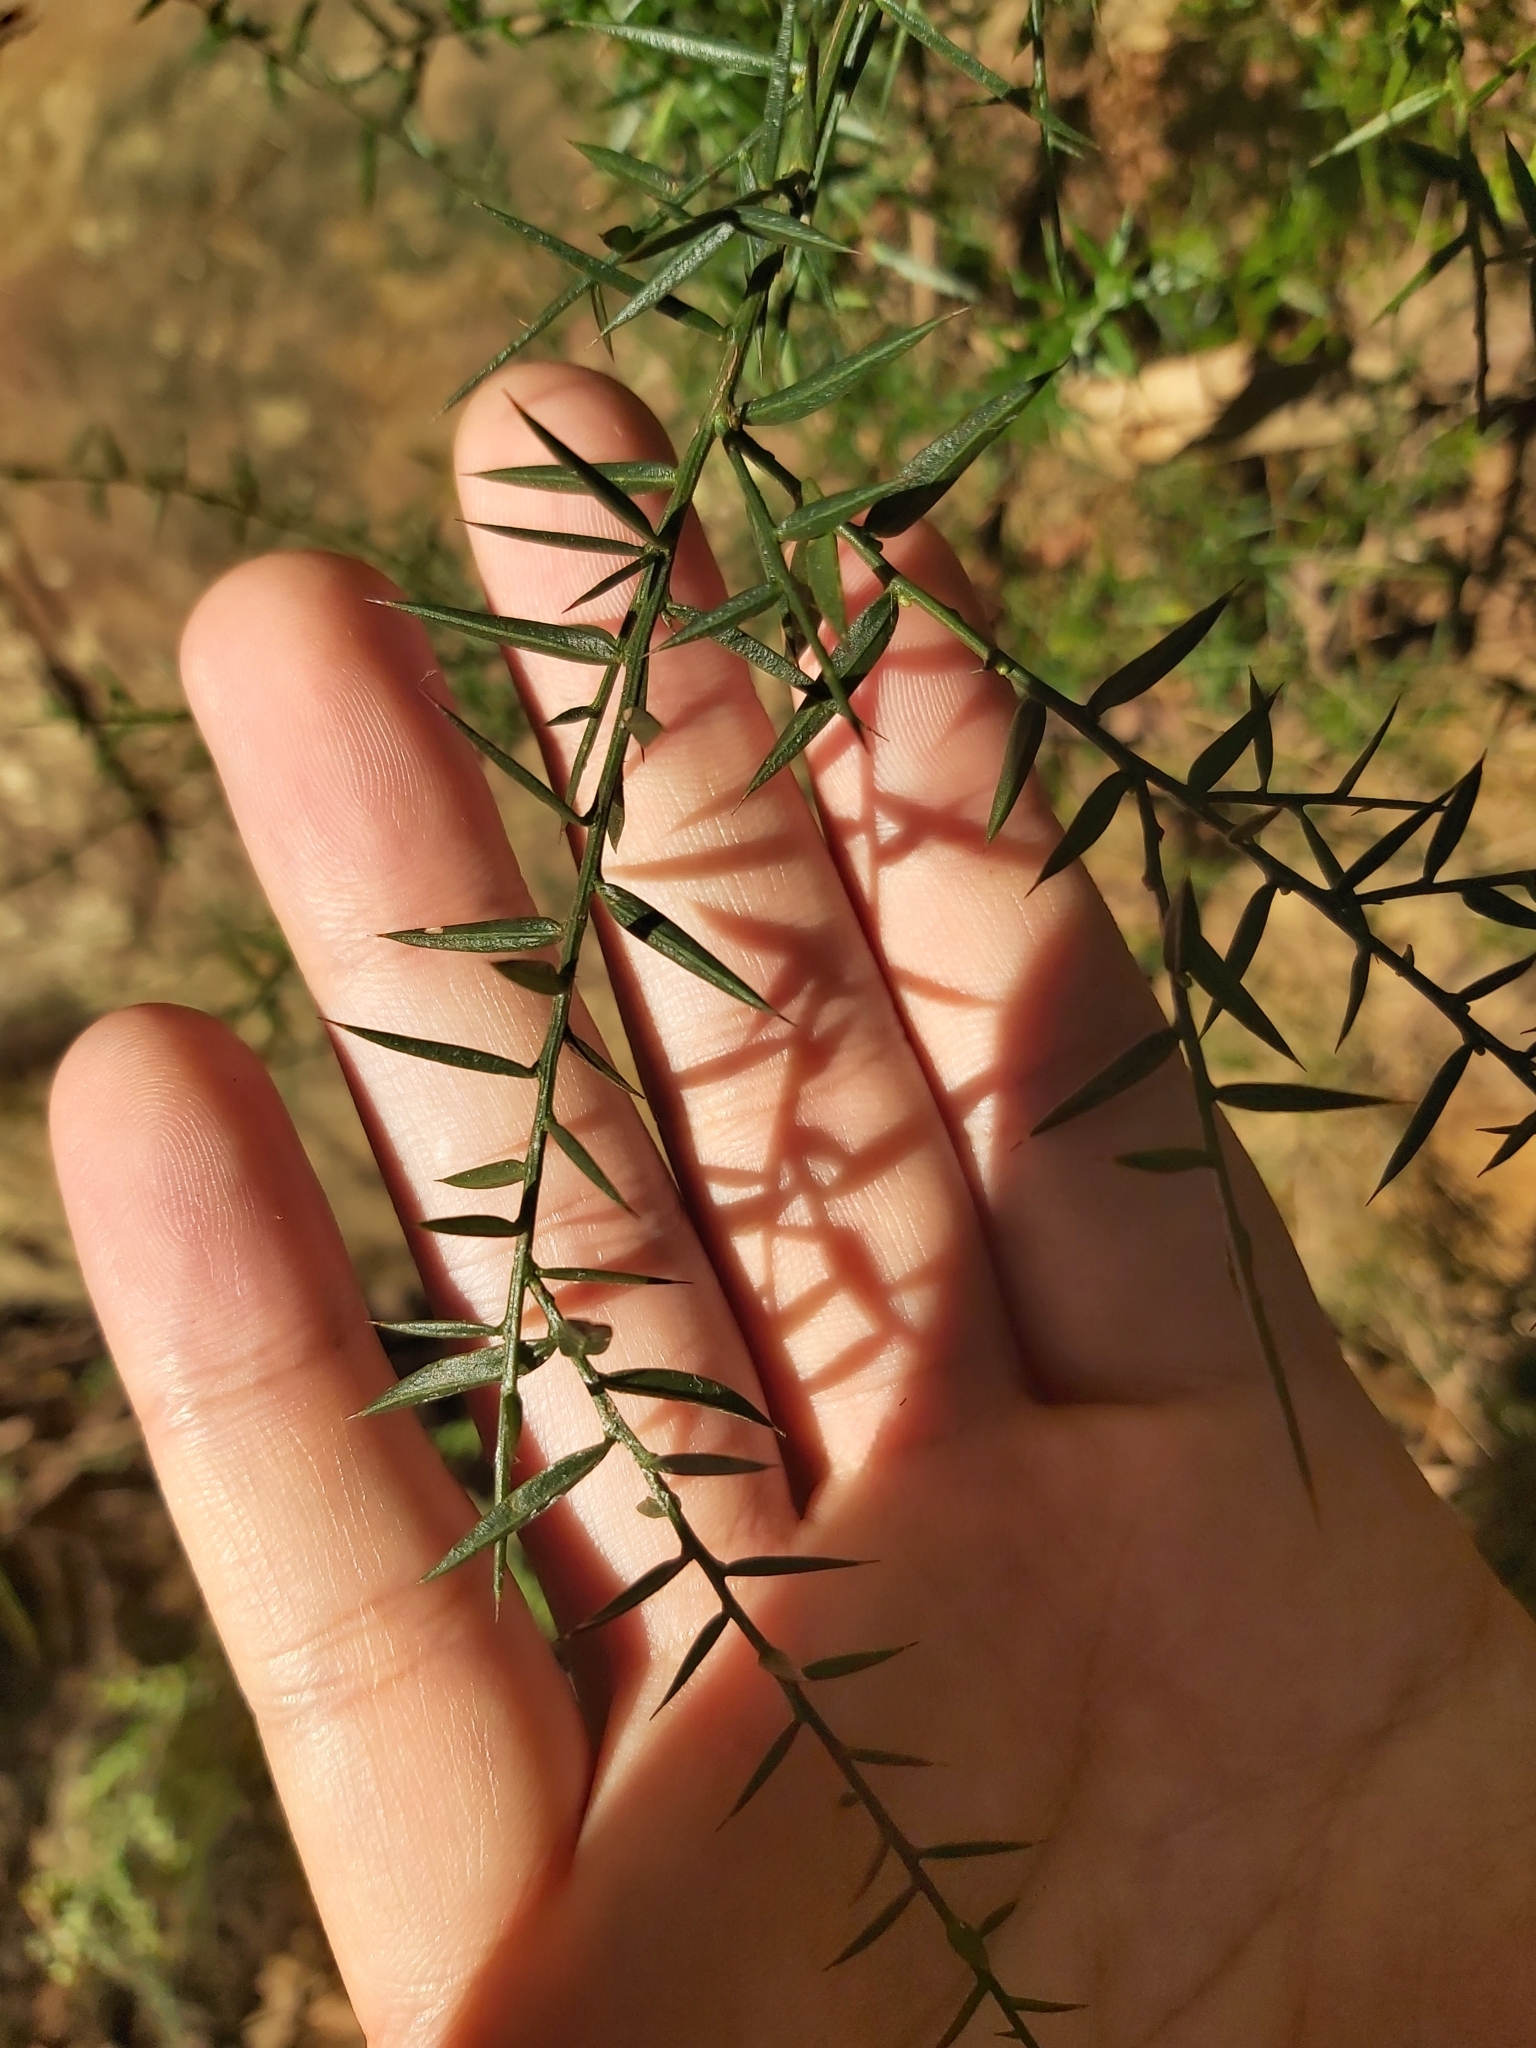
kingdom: Plantae
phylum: Tracheophyta
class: Magnoliopsida
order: Fabales
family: Fabaceae
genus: Daviesia
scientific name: Daviesia ulicifolia
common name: Gorse bitter-pea
